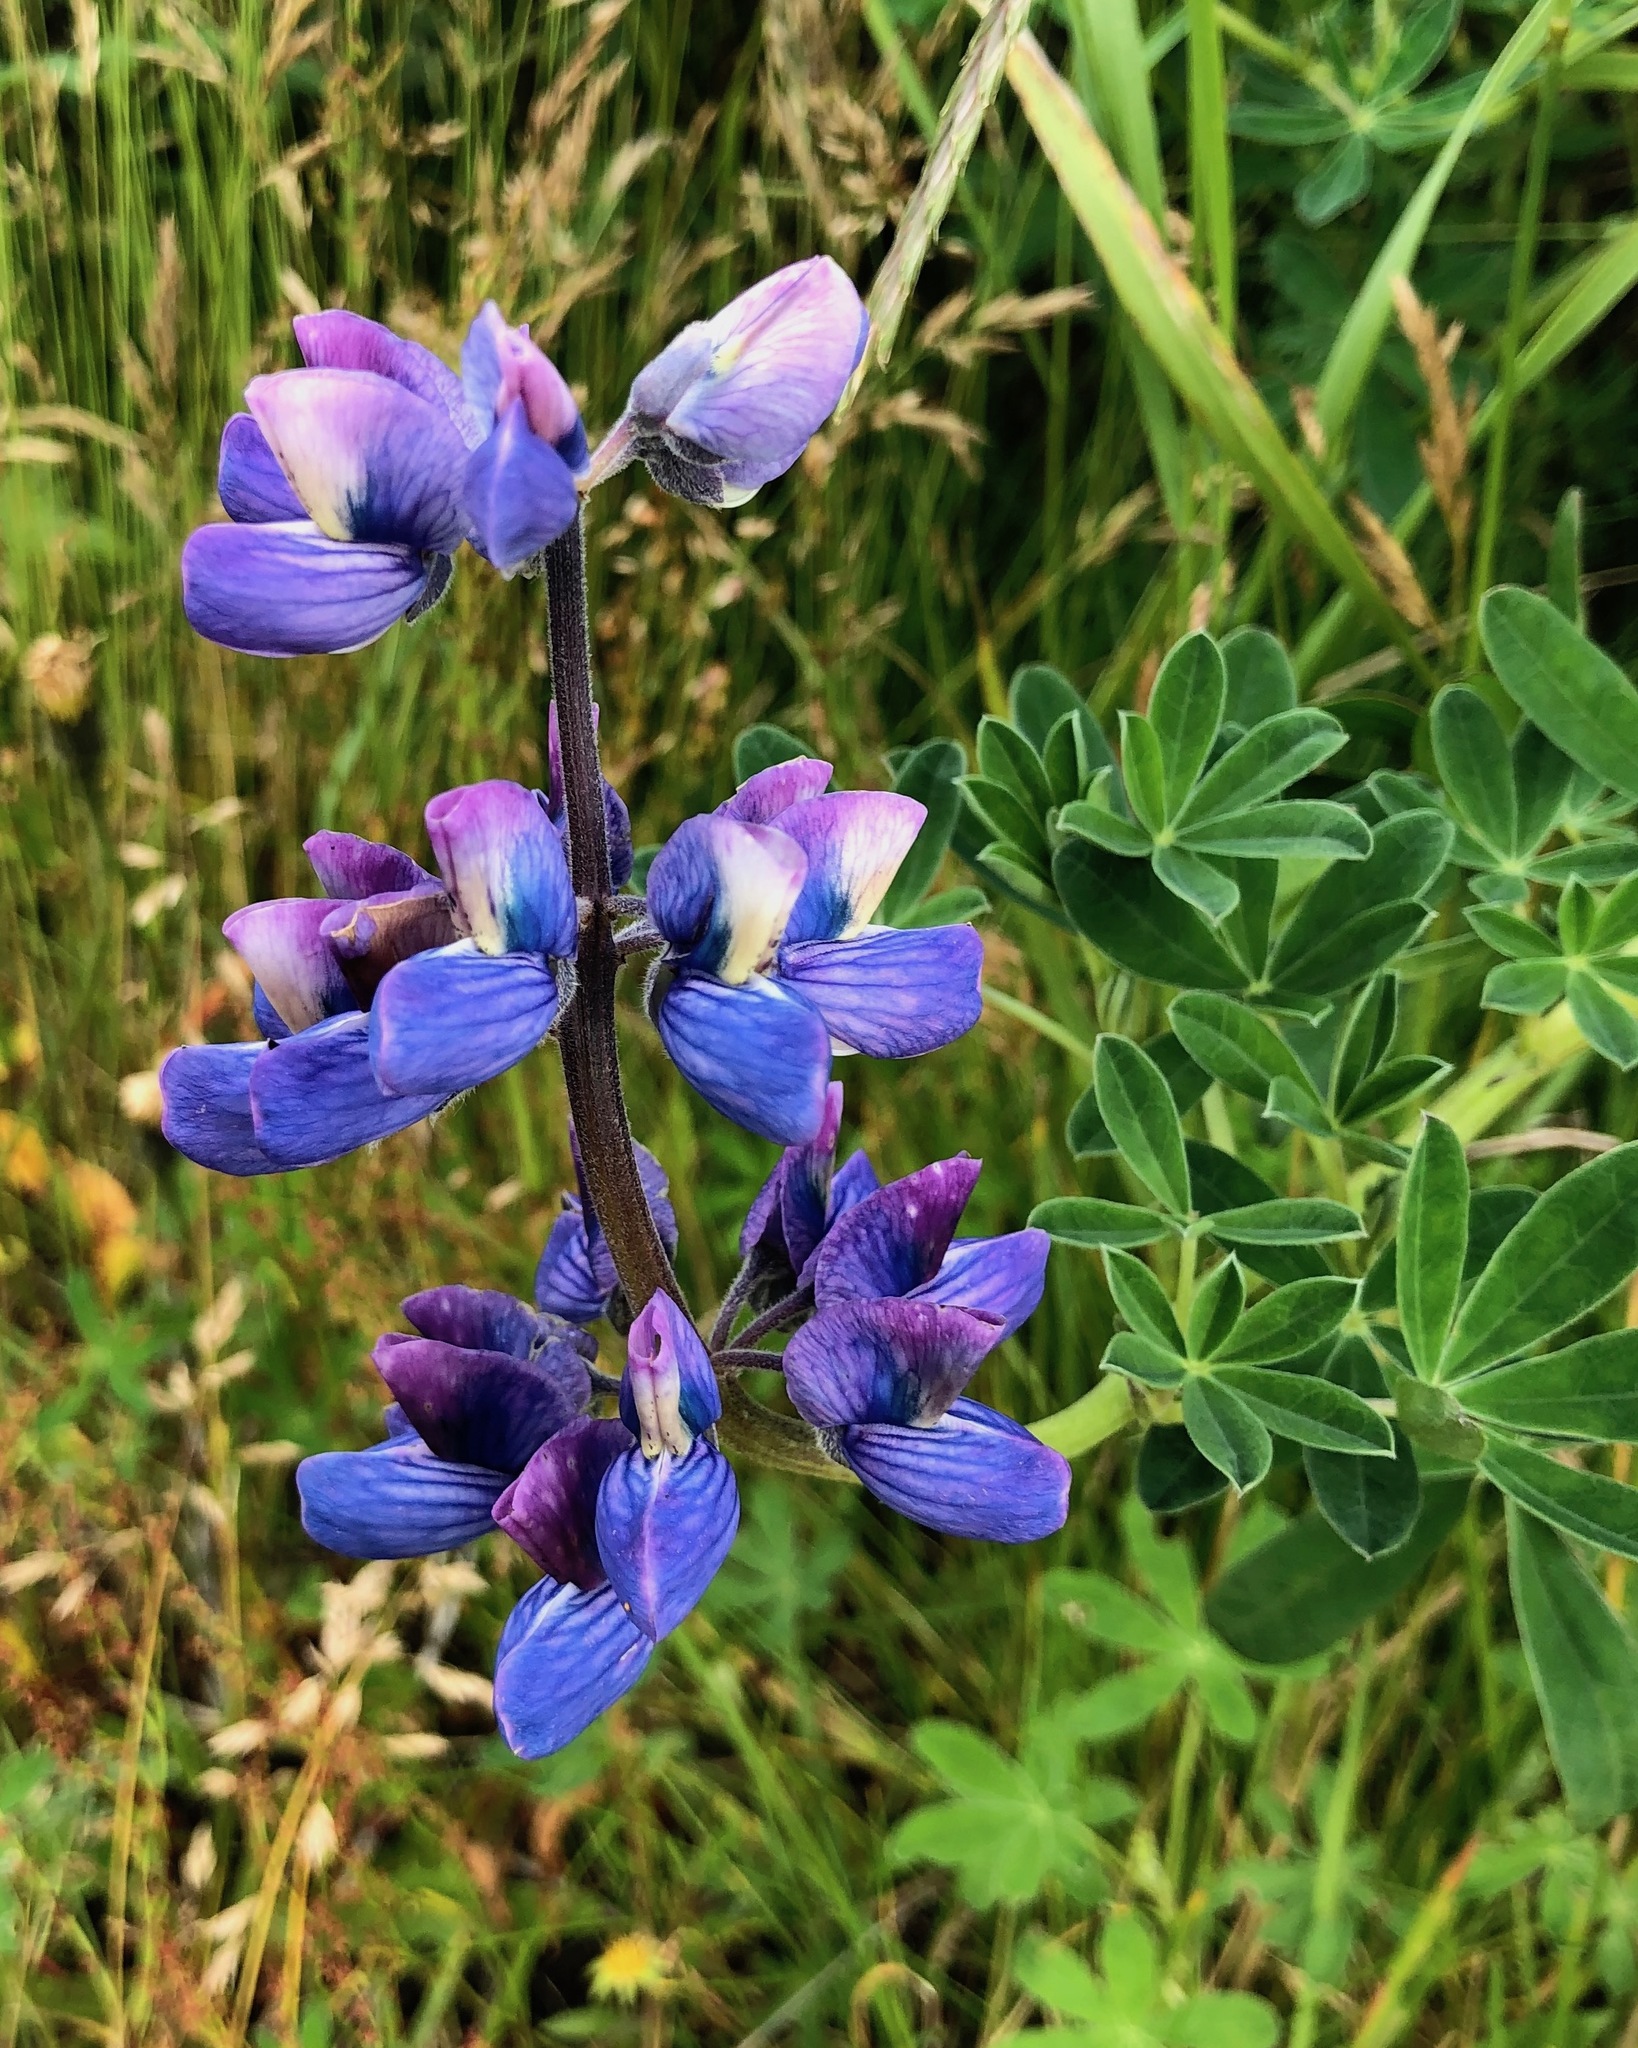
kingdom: Plantae
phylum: Tracheophyta
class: Magnoliopsida
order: Fabales
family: Fabaceae
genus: Lupinus
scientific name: Lupinus nootkatensis
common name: Nootka lupine
